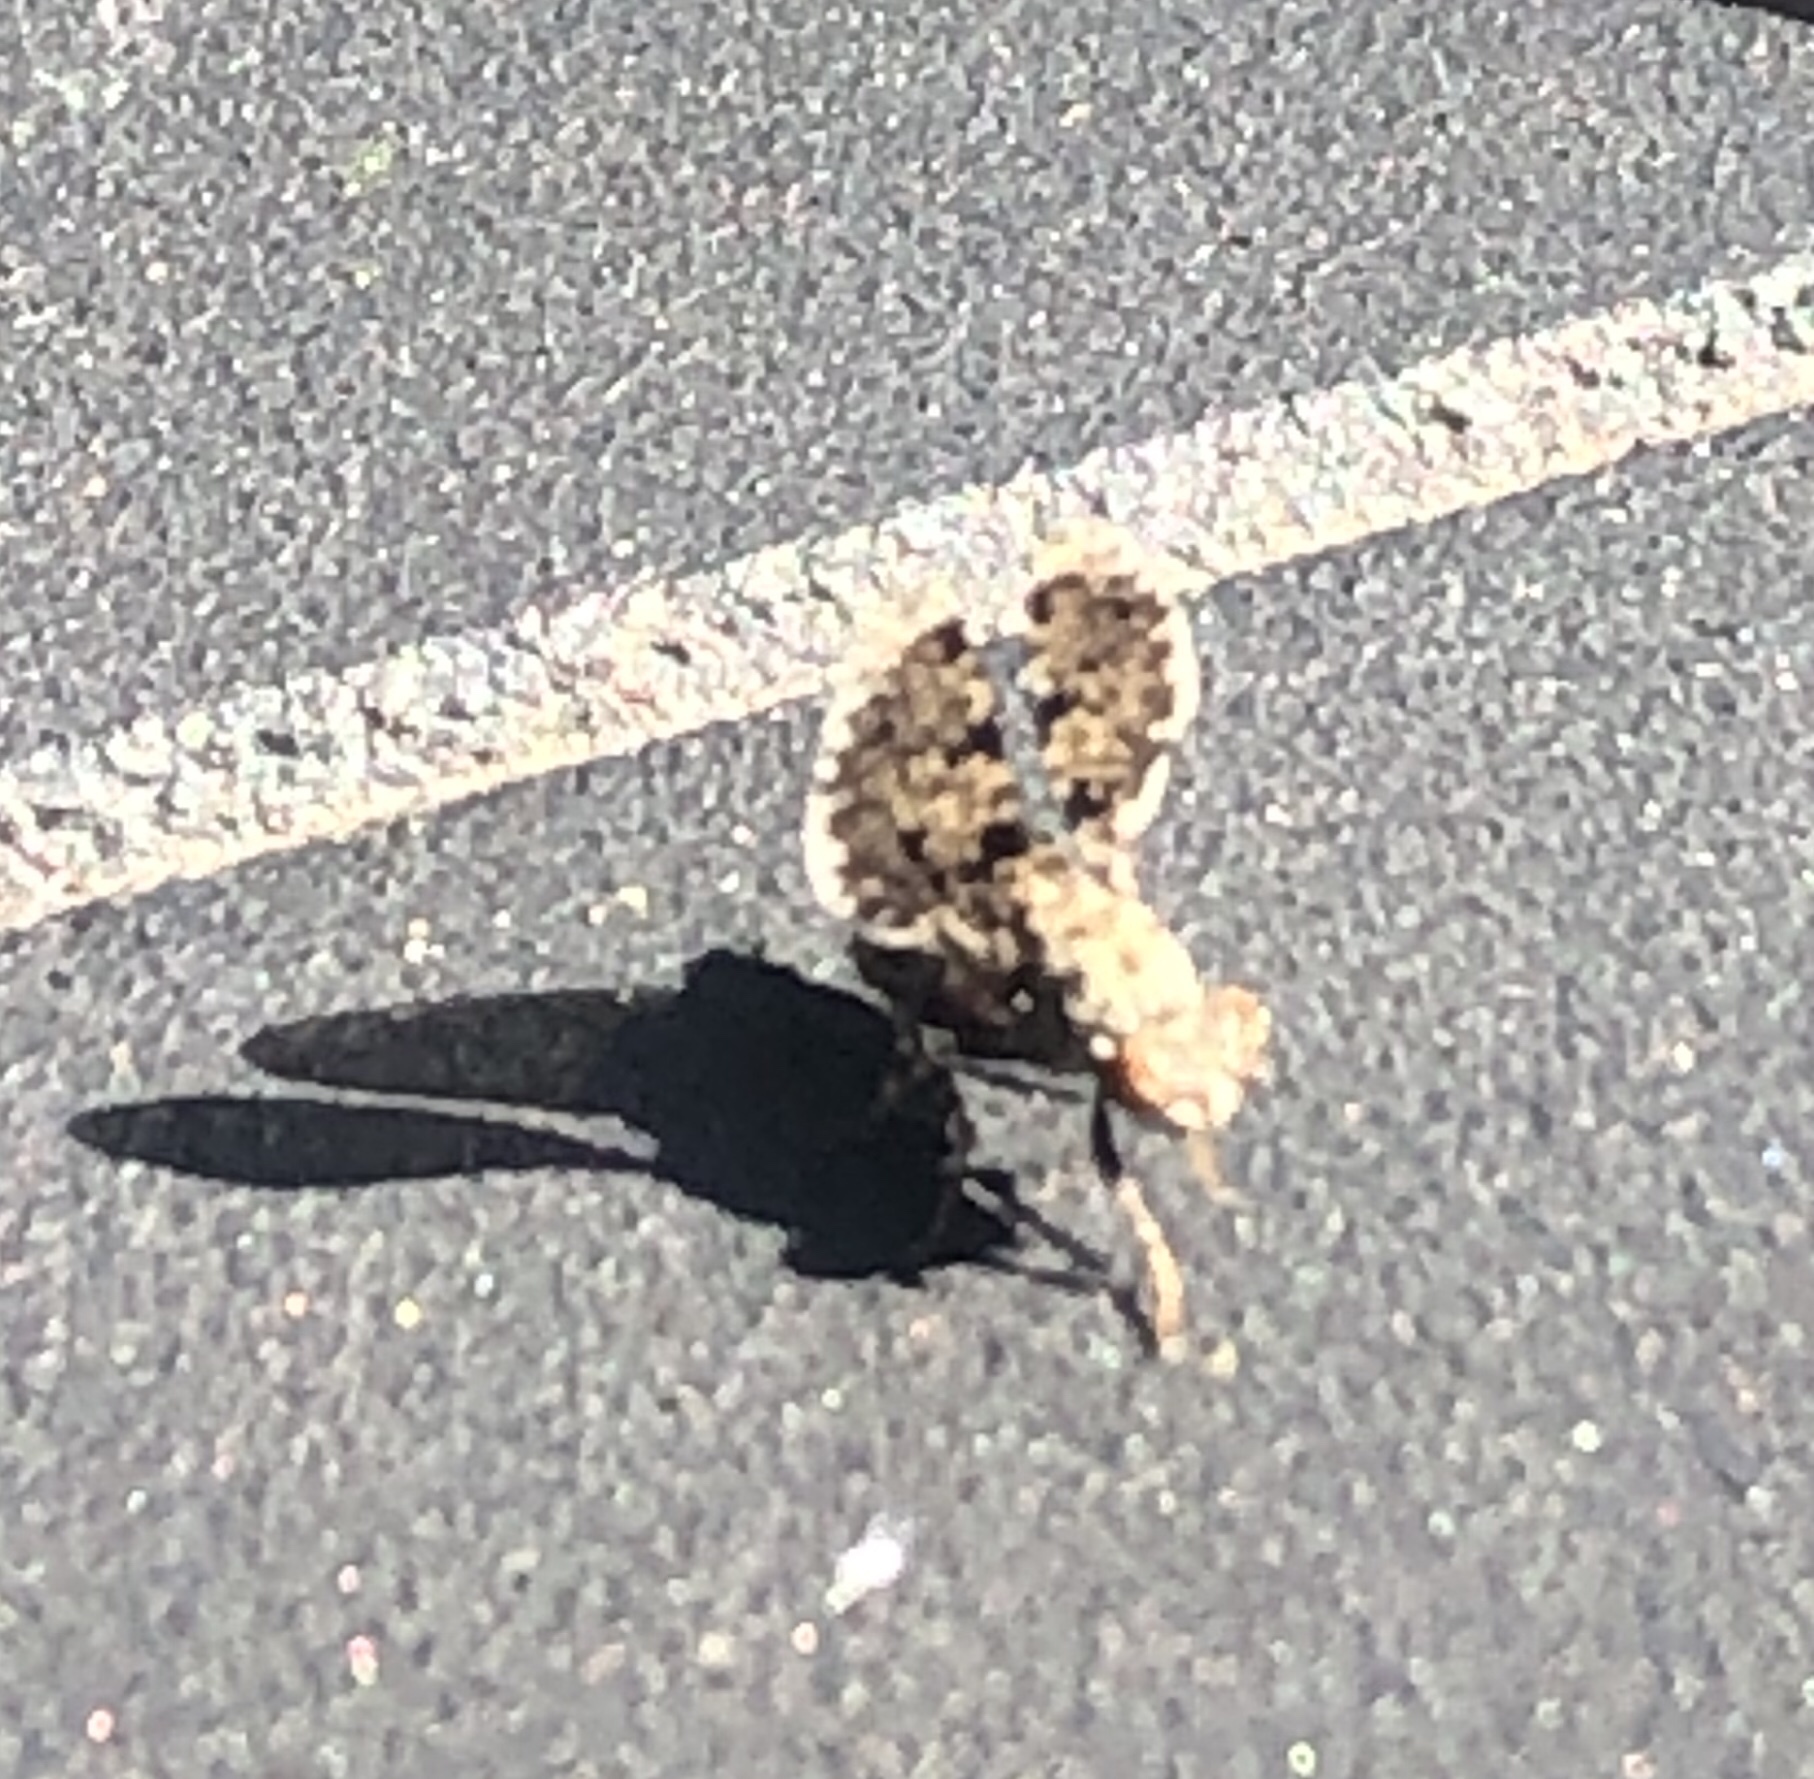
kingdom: Animalia
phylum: Arthropoda
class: Insecta
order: Diptera
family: Ulidiidae
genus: Callopistromyia
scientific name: Callopistromyia annulipes
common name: Peacock fly
